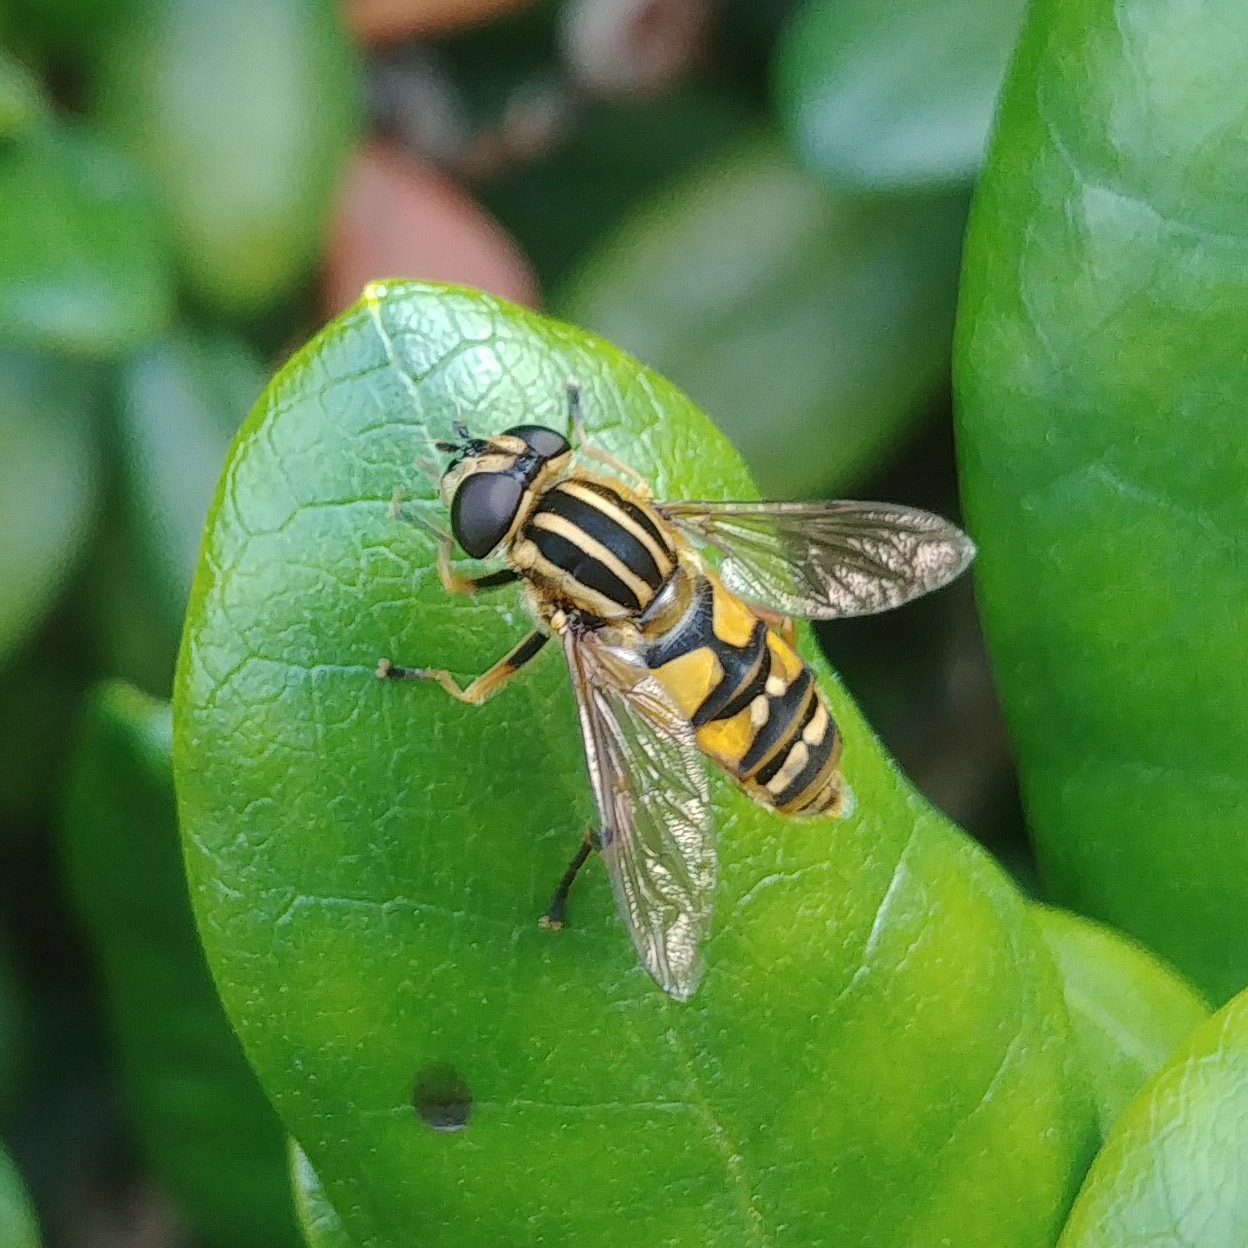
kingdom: Animalia
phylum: Arthropoda
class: Insecta
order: Diptera
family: Syrphidae
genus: Helophilus
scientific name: Helophilus pendulus
